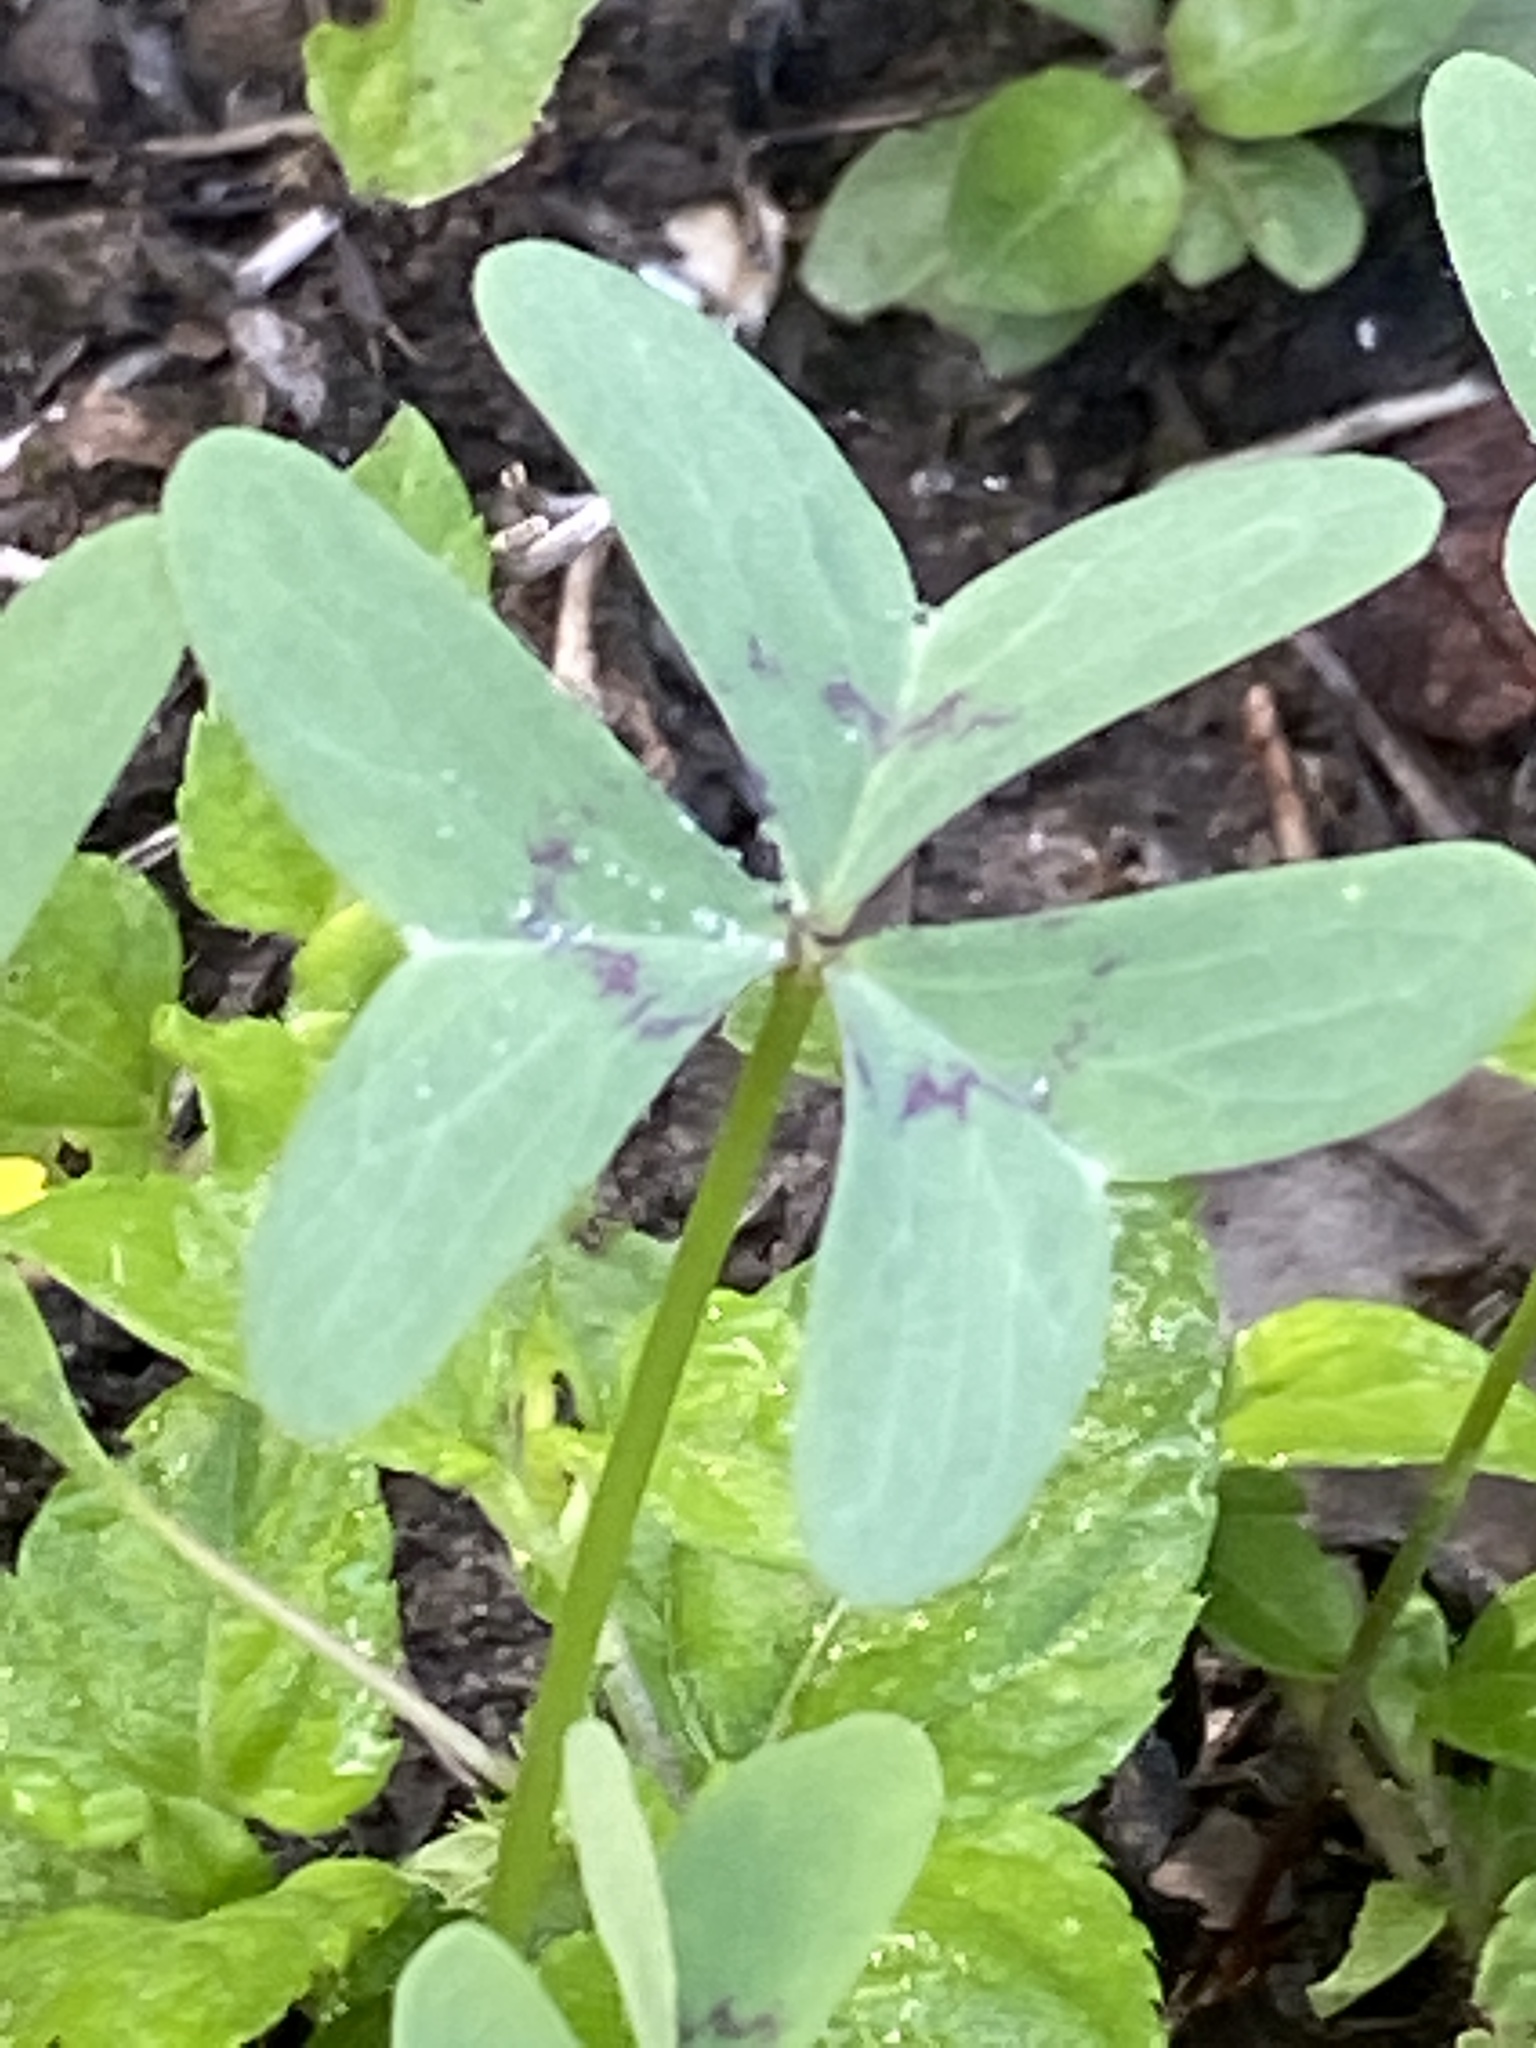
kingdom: Plantae
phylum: Tracheophyta
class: Magnoliopsida
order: Oxalidales
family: Oxalidaceae
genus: Oxalis
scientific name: Oxalis drummondii
